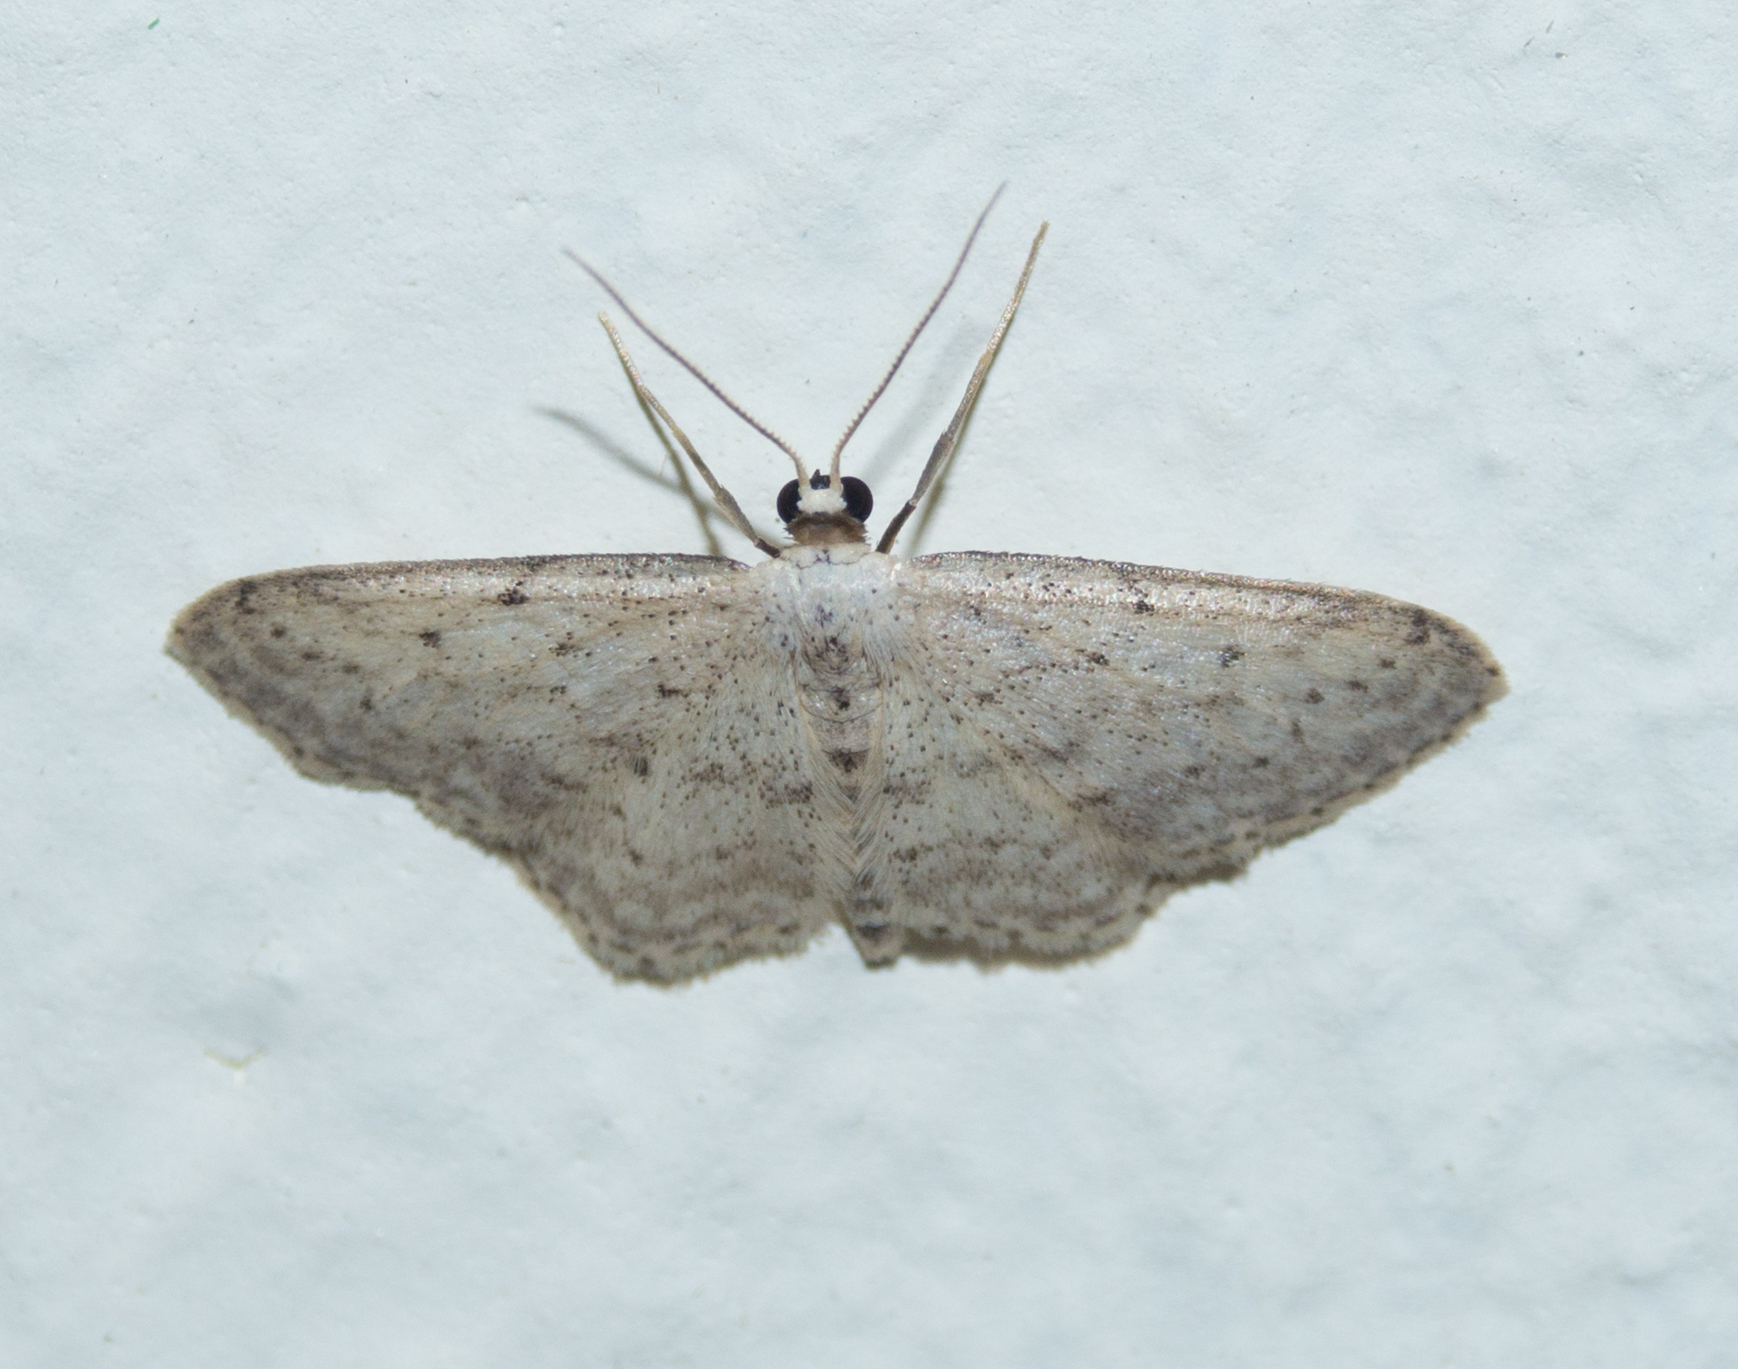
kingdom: Animalia
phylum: Arthropoda
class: Insecta
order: Lepidoptera
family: Geometridae
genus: Idaea
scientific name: Idaea seriata
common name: Small dusty wave
